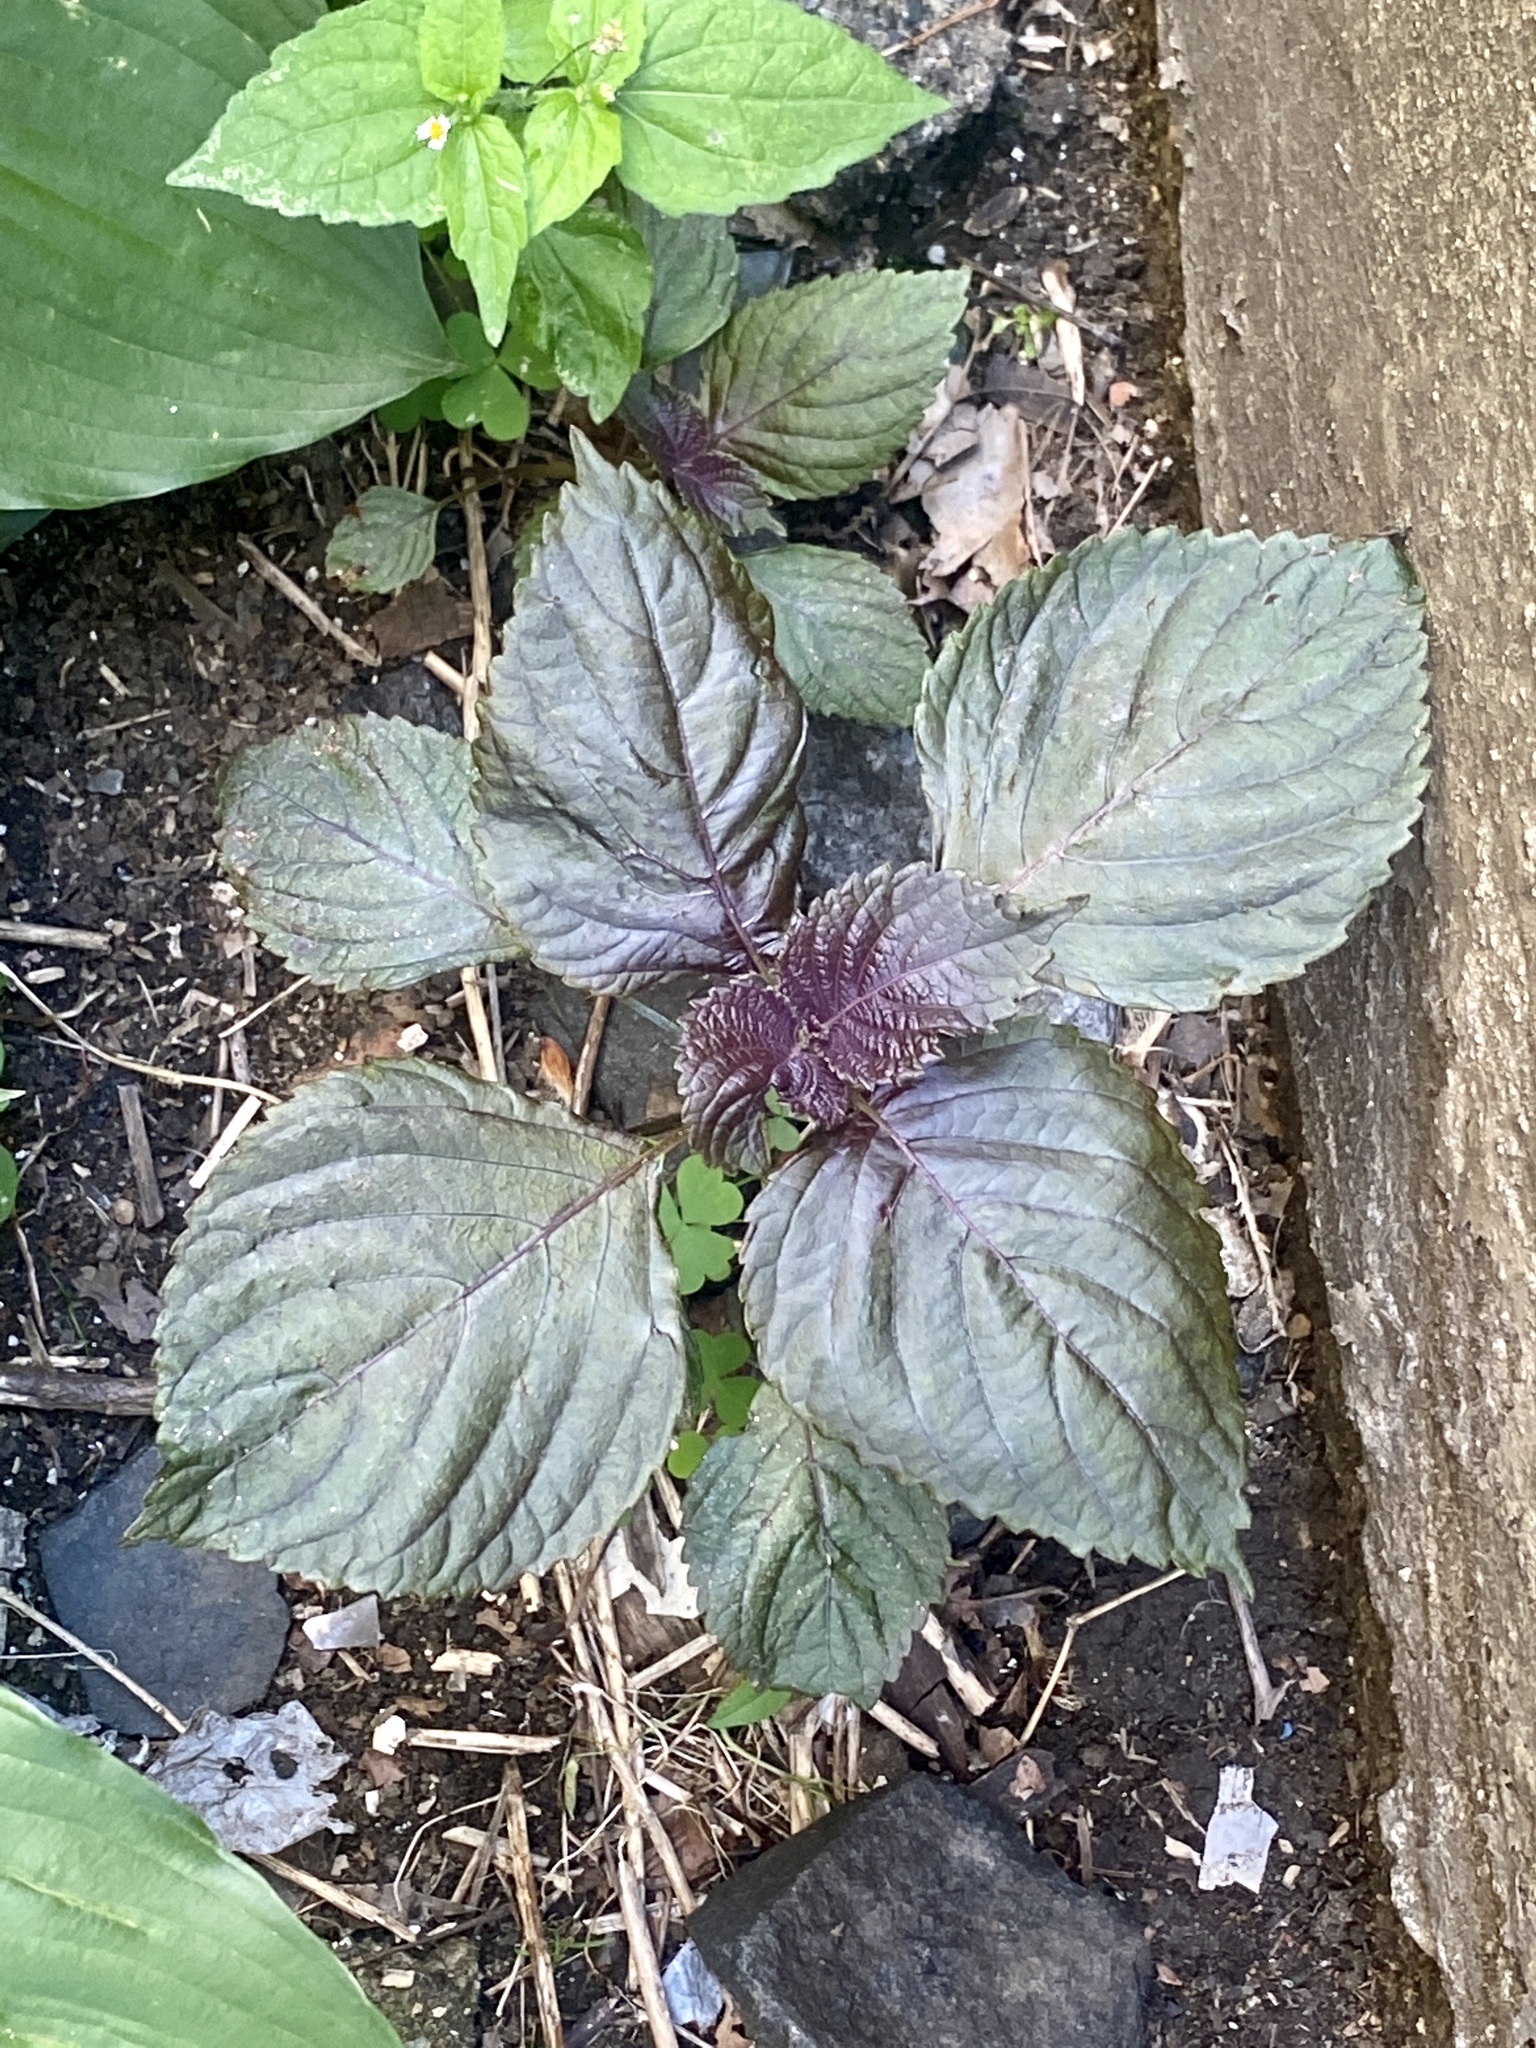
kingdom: Plantae
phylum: Tracheophyta
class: Magnoliopsida
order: Lamiales
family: Lamiaceae
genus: Perilla
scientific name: Perilla frutescens
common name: Perilla
